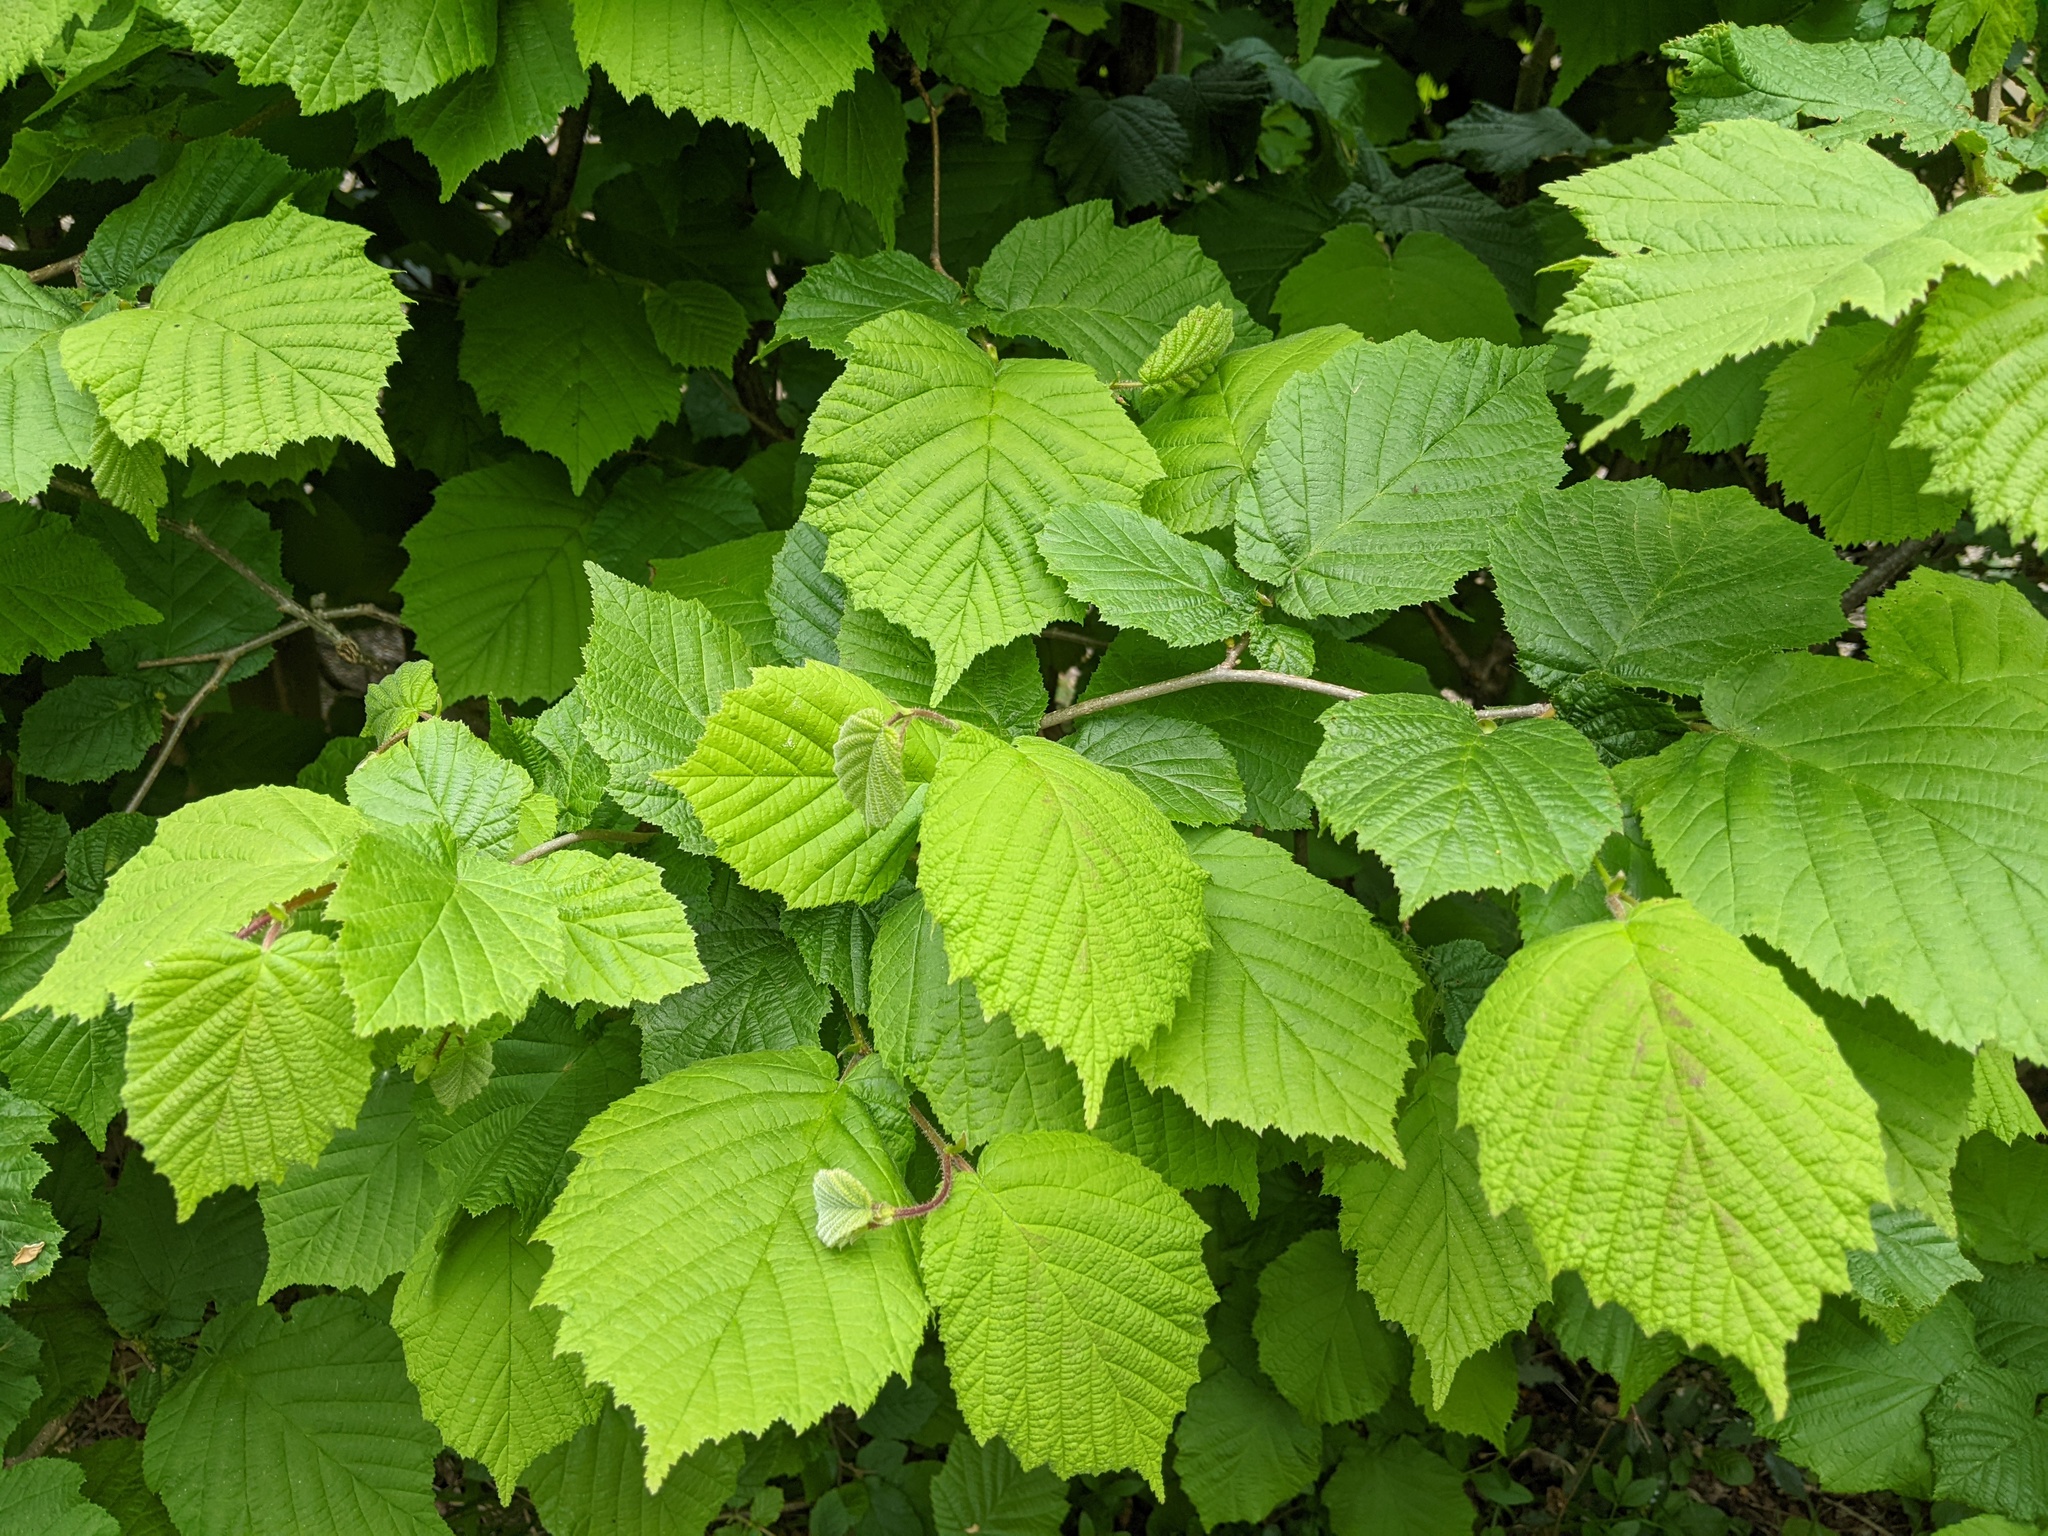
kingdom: Plantae
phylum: Tracheophyta
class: Magnoliopsida
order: Fagales
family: Betulaceae
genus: Corylus
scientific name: Corylus avellana
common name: European hazel
